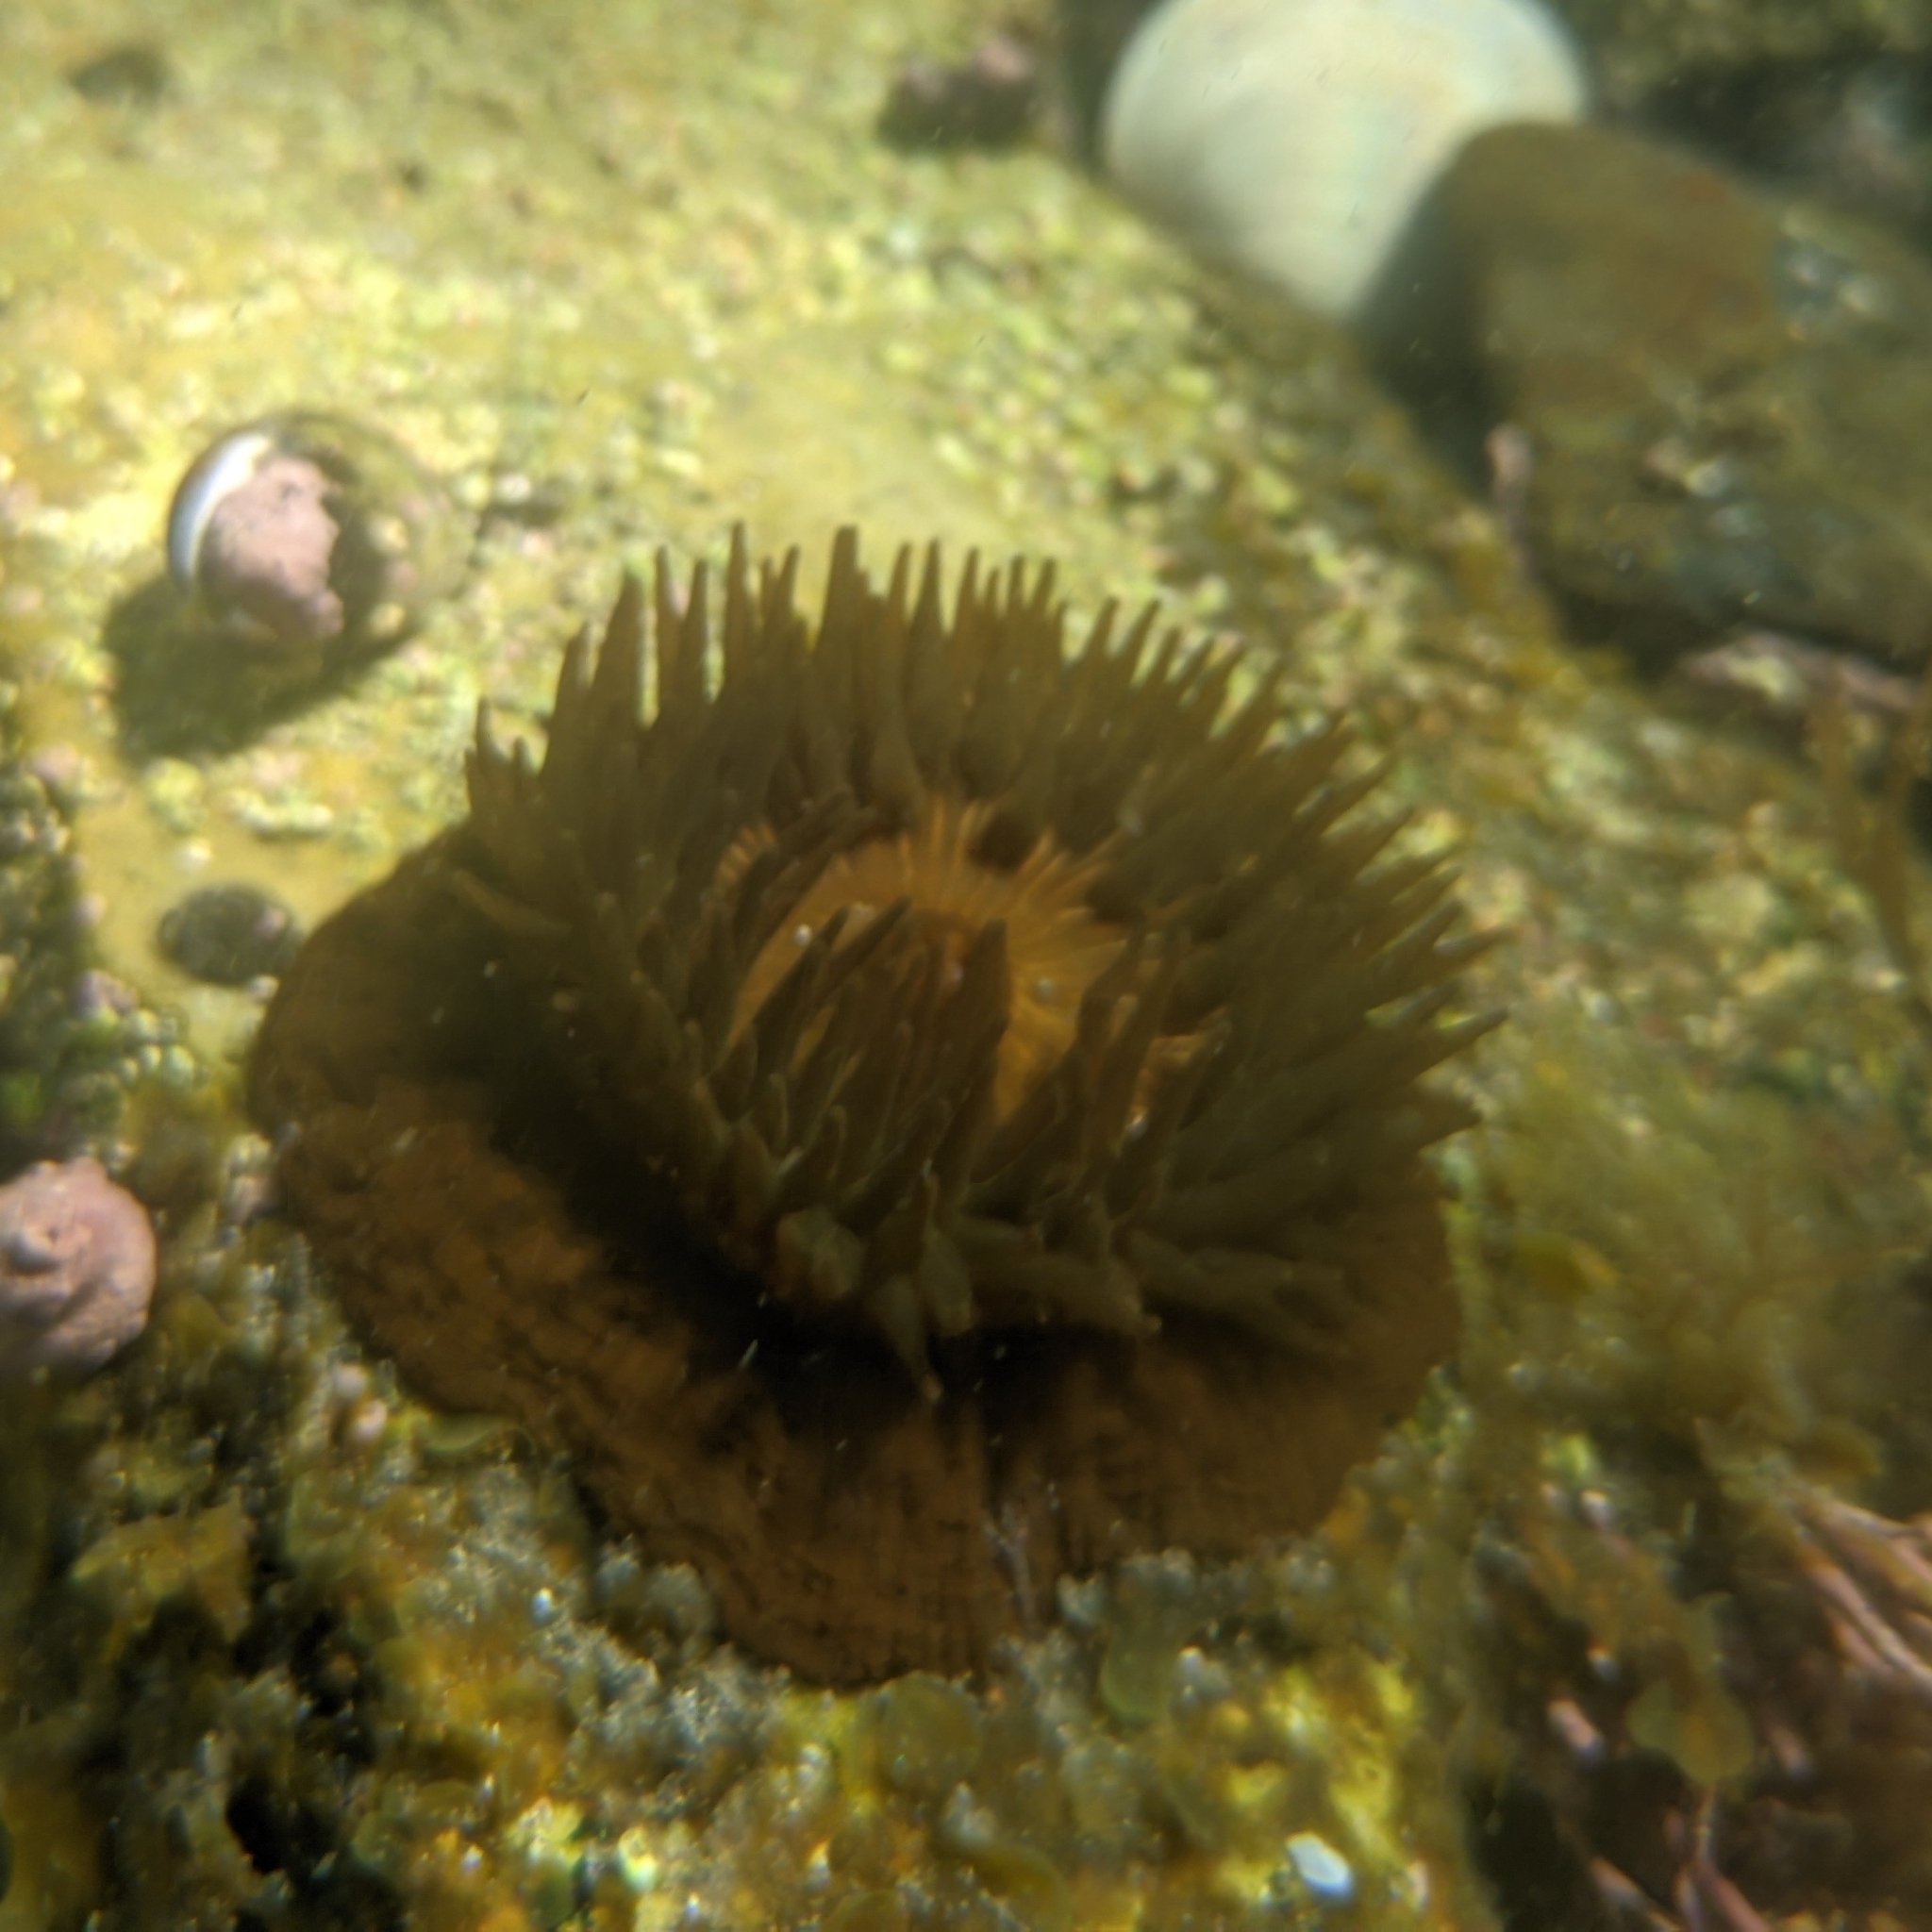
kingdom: Animalia
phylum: Cnidaria
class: Anthozoa
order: Actiniaria
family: Actiniidae
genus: Epiactis
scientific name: Epiactis japonica
